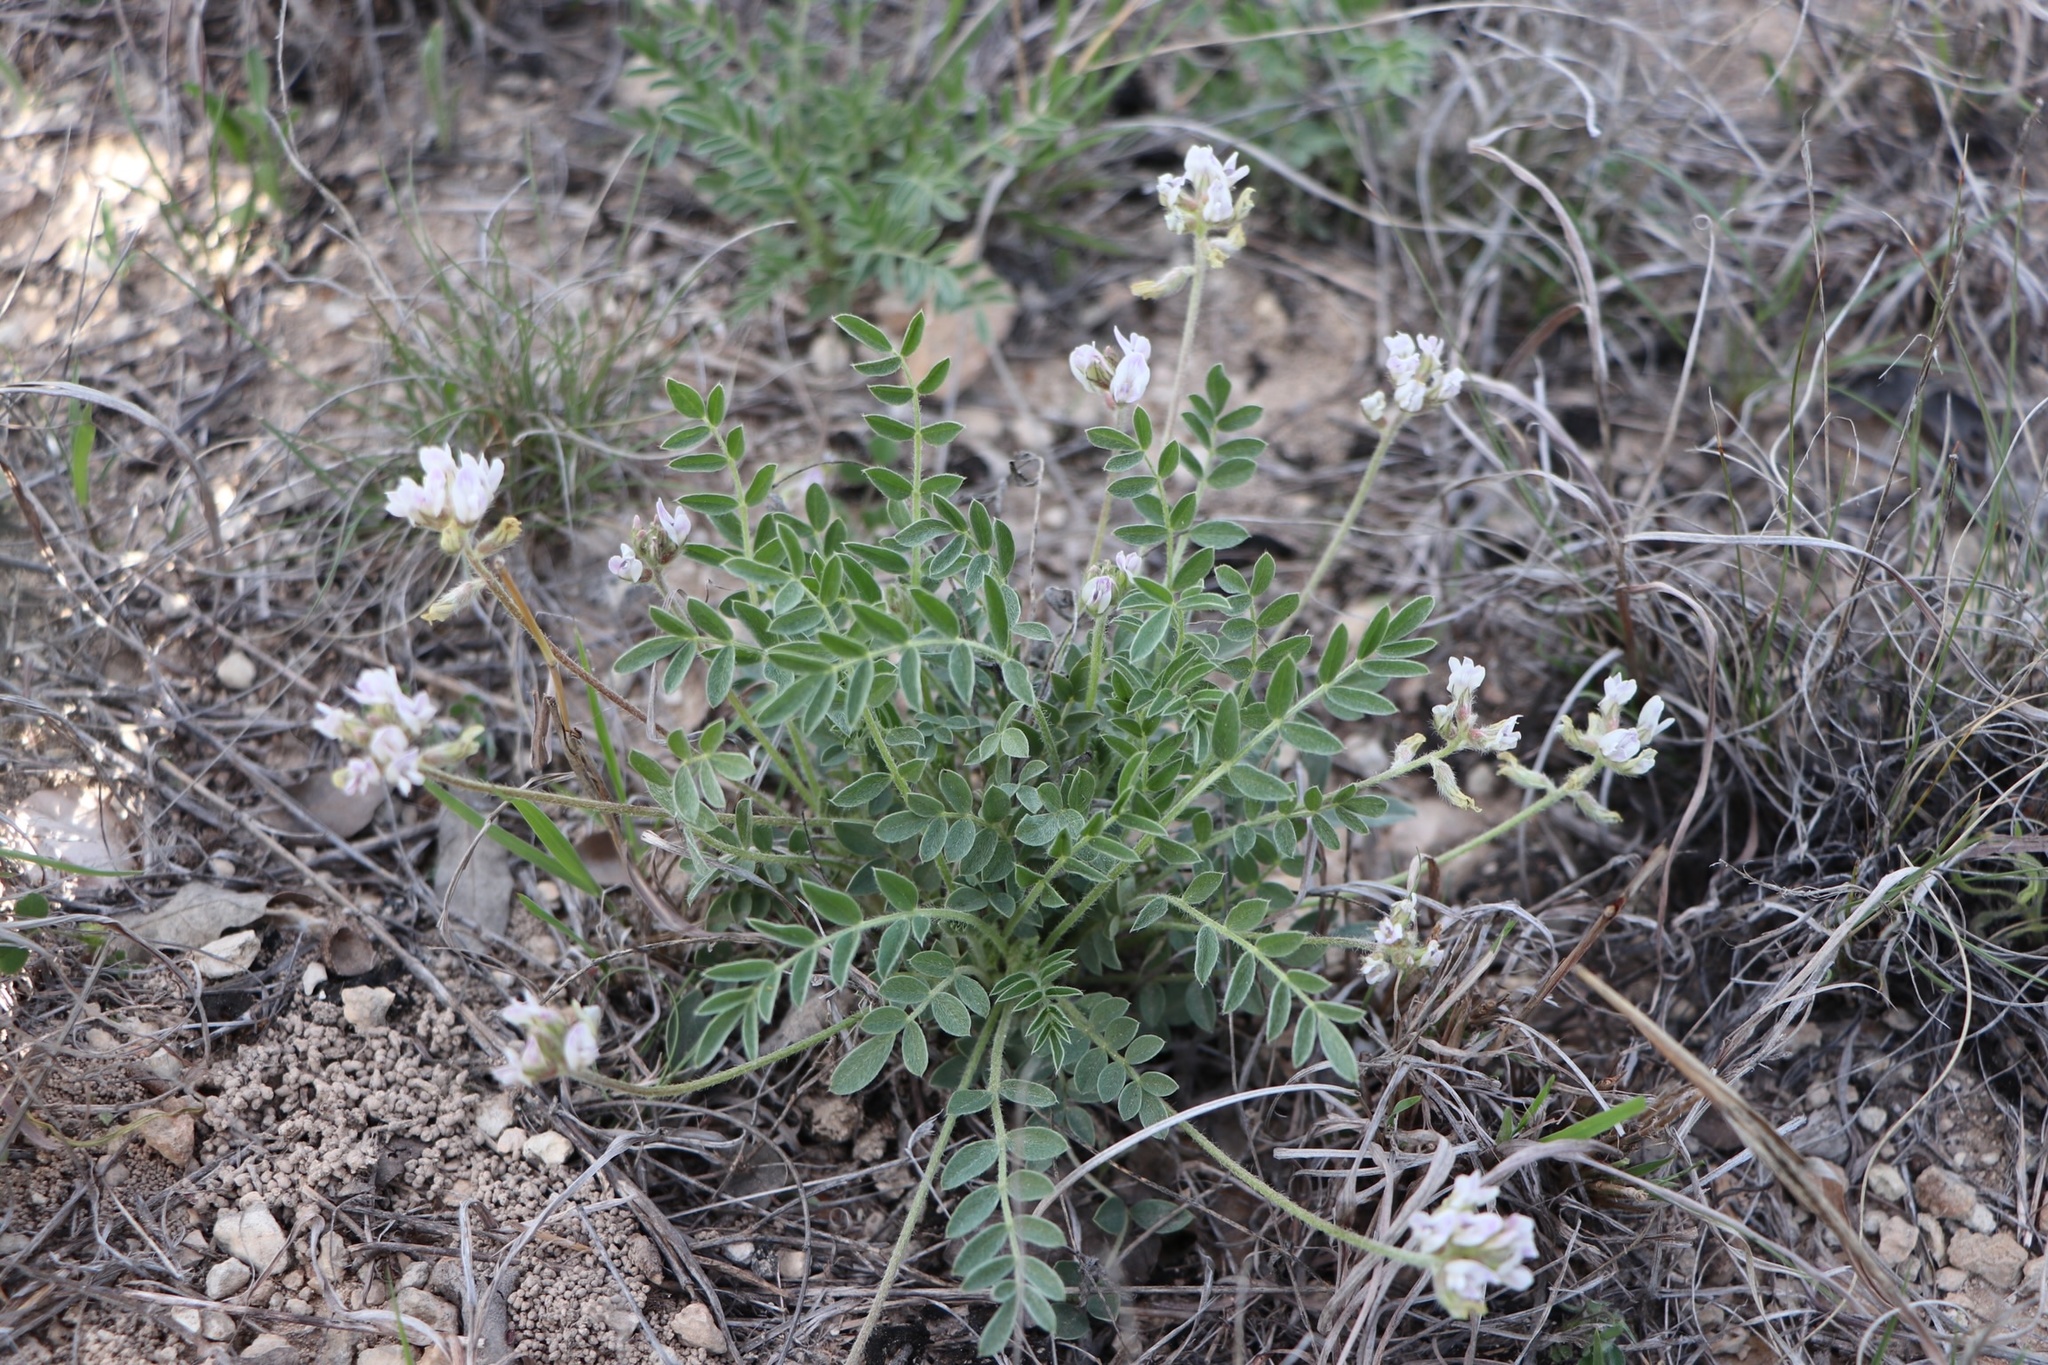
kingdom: Plantae
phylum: Tracheophyta
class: Magnoliopsida
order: Fabales
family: Fabaceae
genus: Astragalus
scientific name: Astragalus lotiflorus
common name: Lotus milk-vetch
